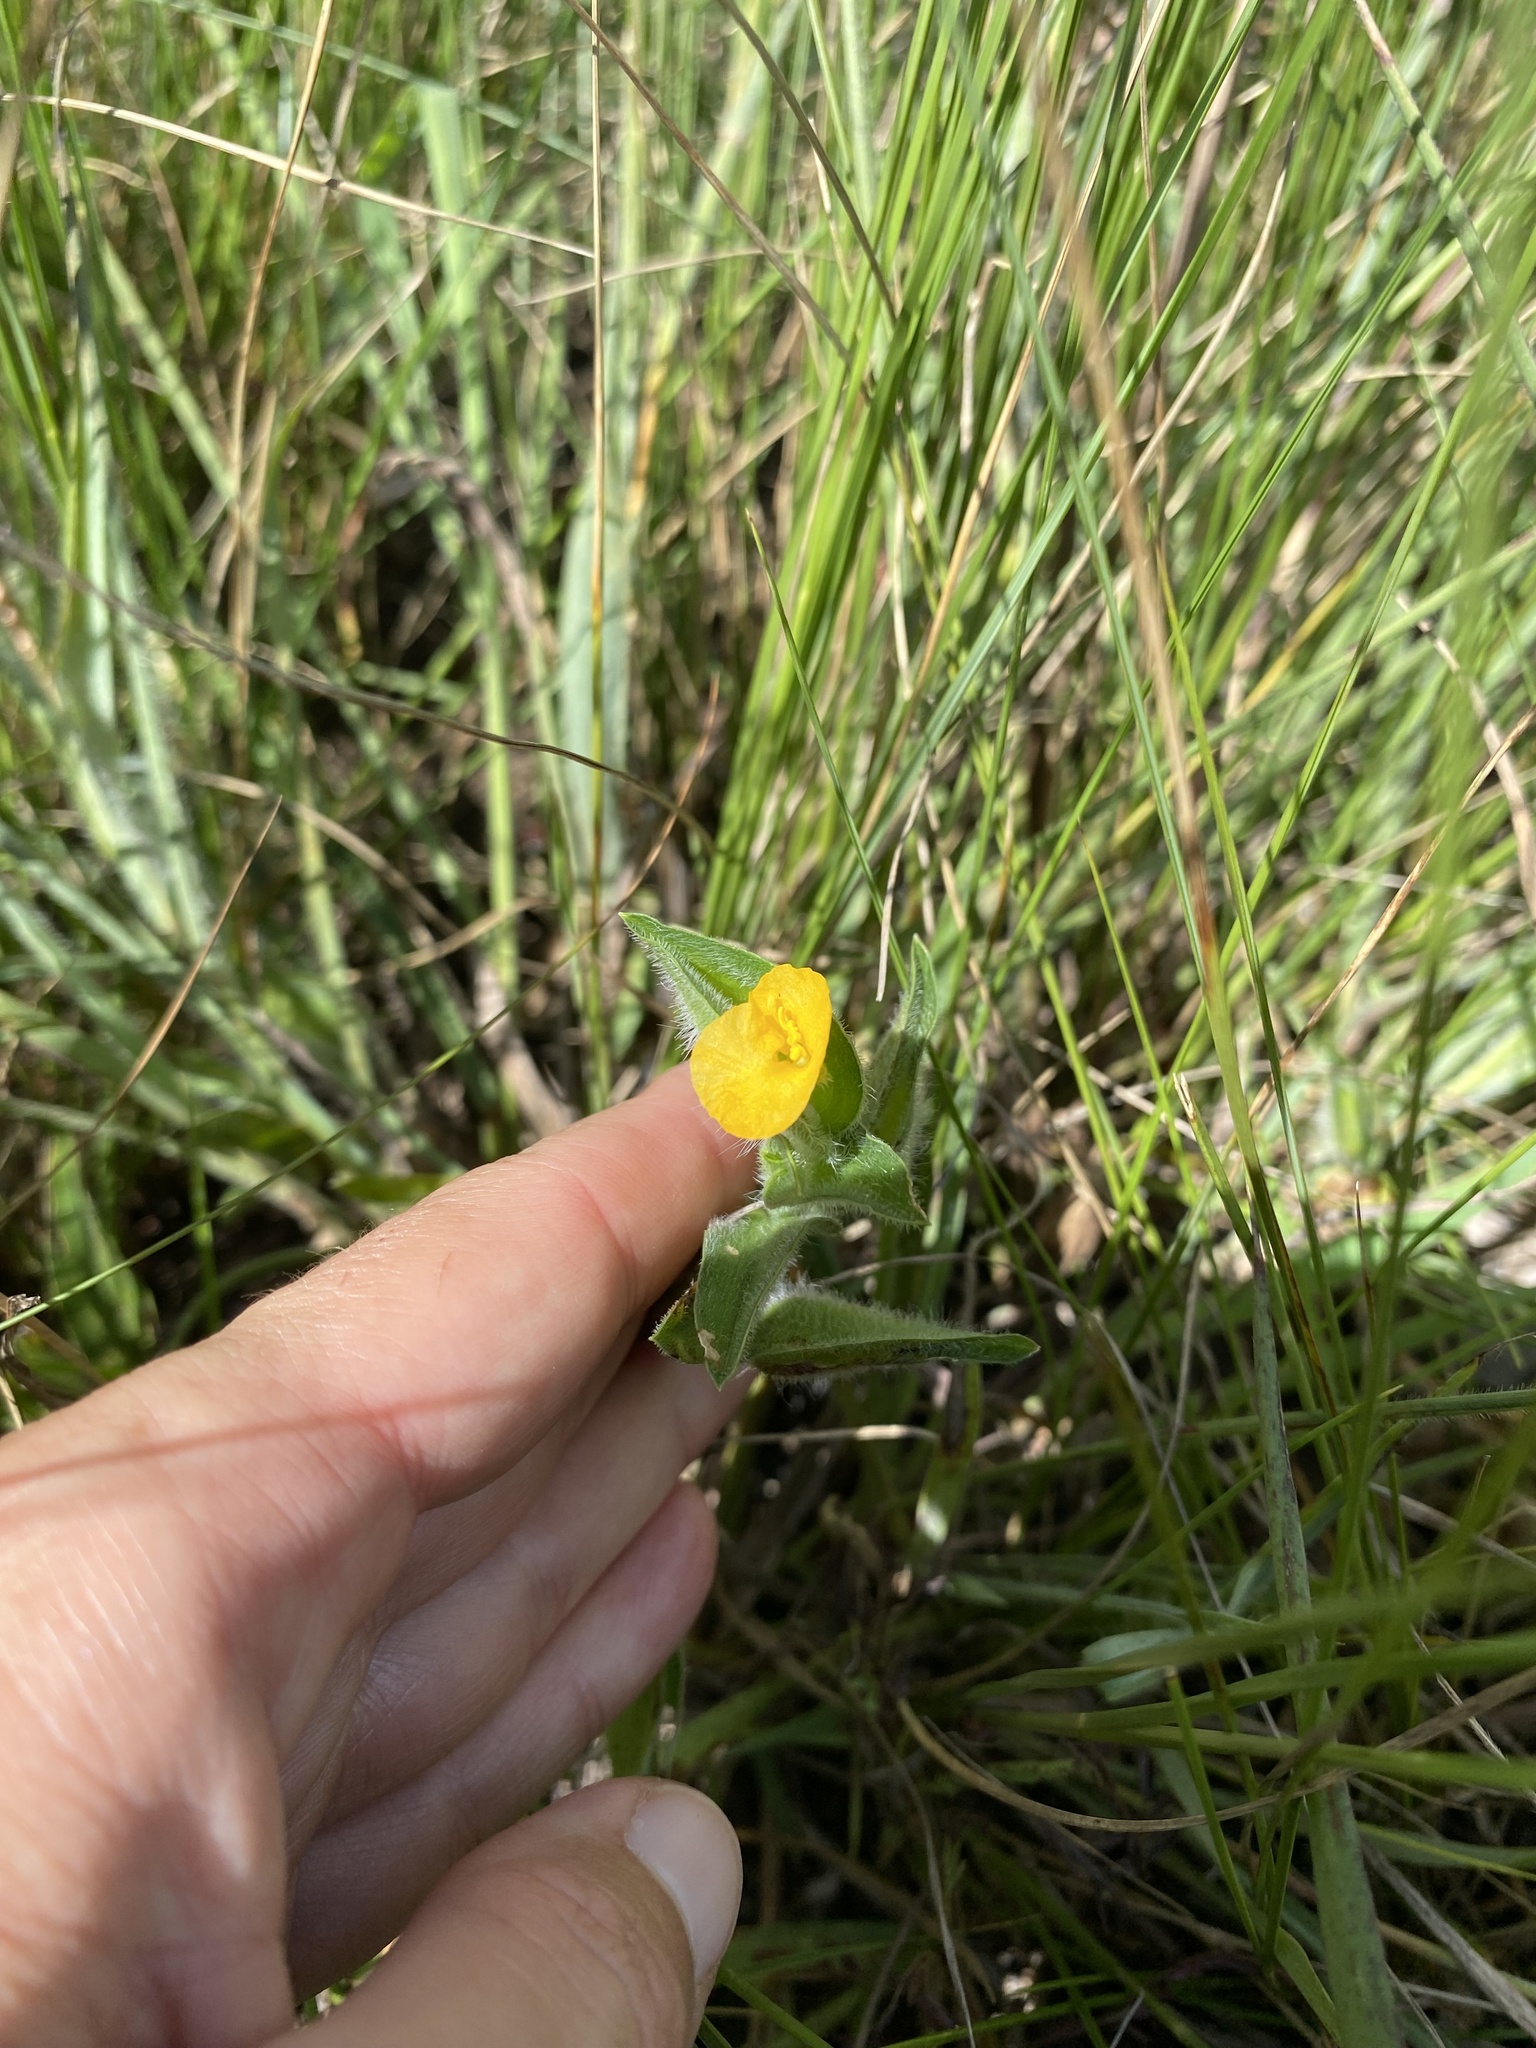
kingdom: Plantae
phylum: Tracheophyta
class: Liliopsida
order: Commelinales
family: Commelinaceae
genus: Commelina
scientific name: Commelina africana
